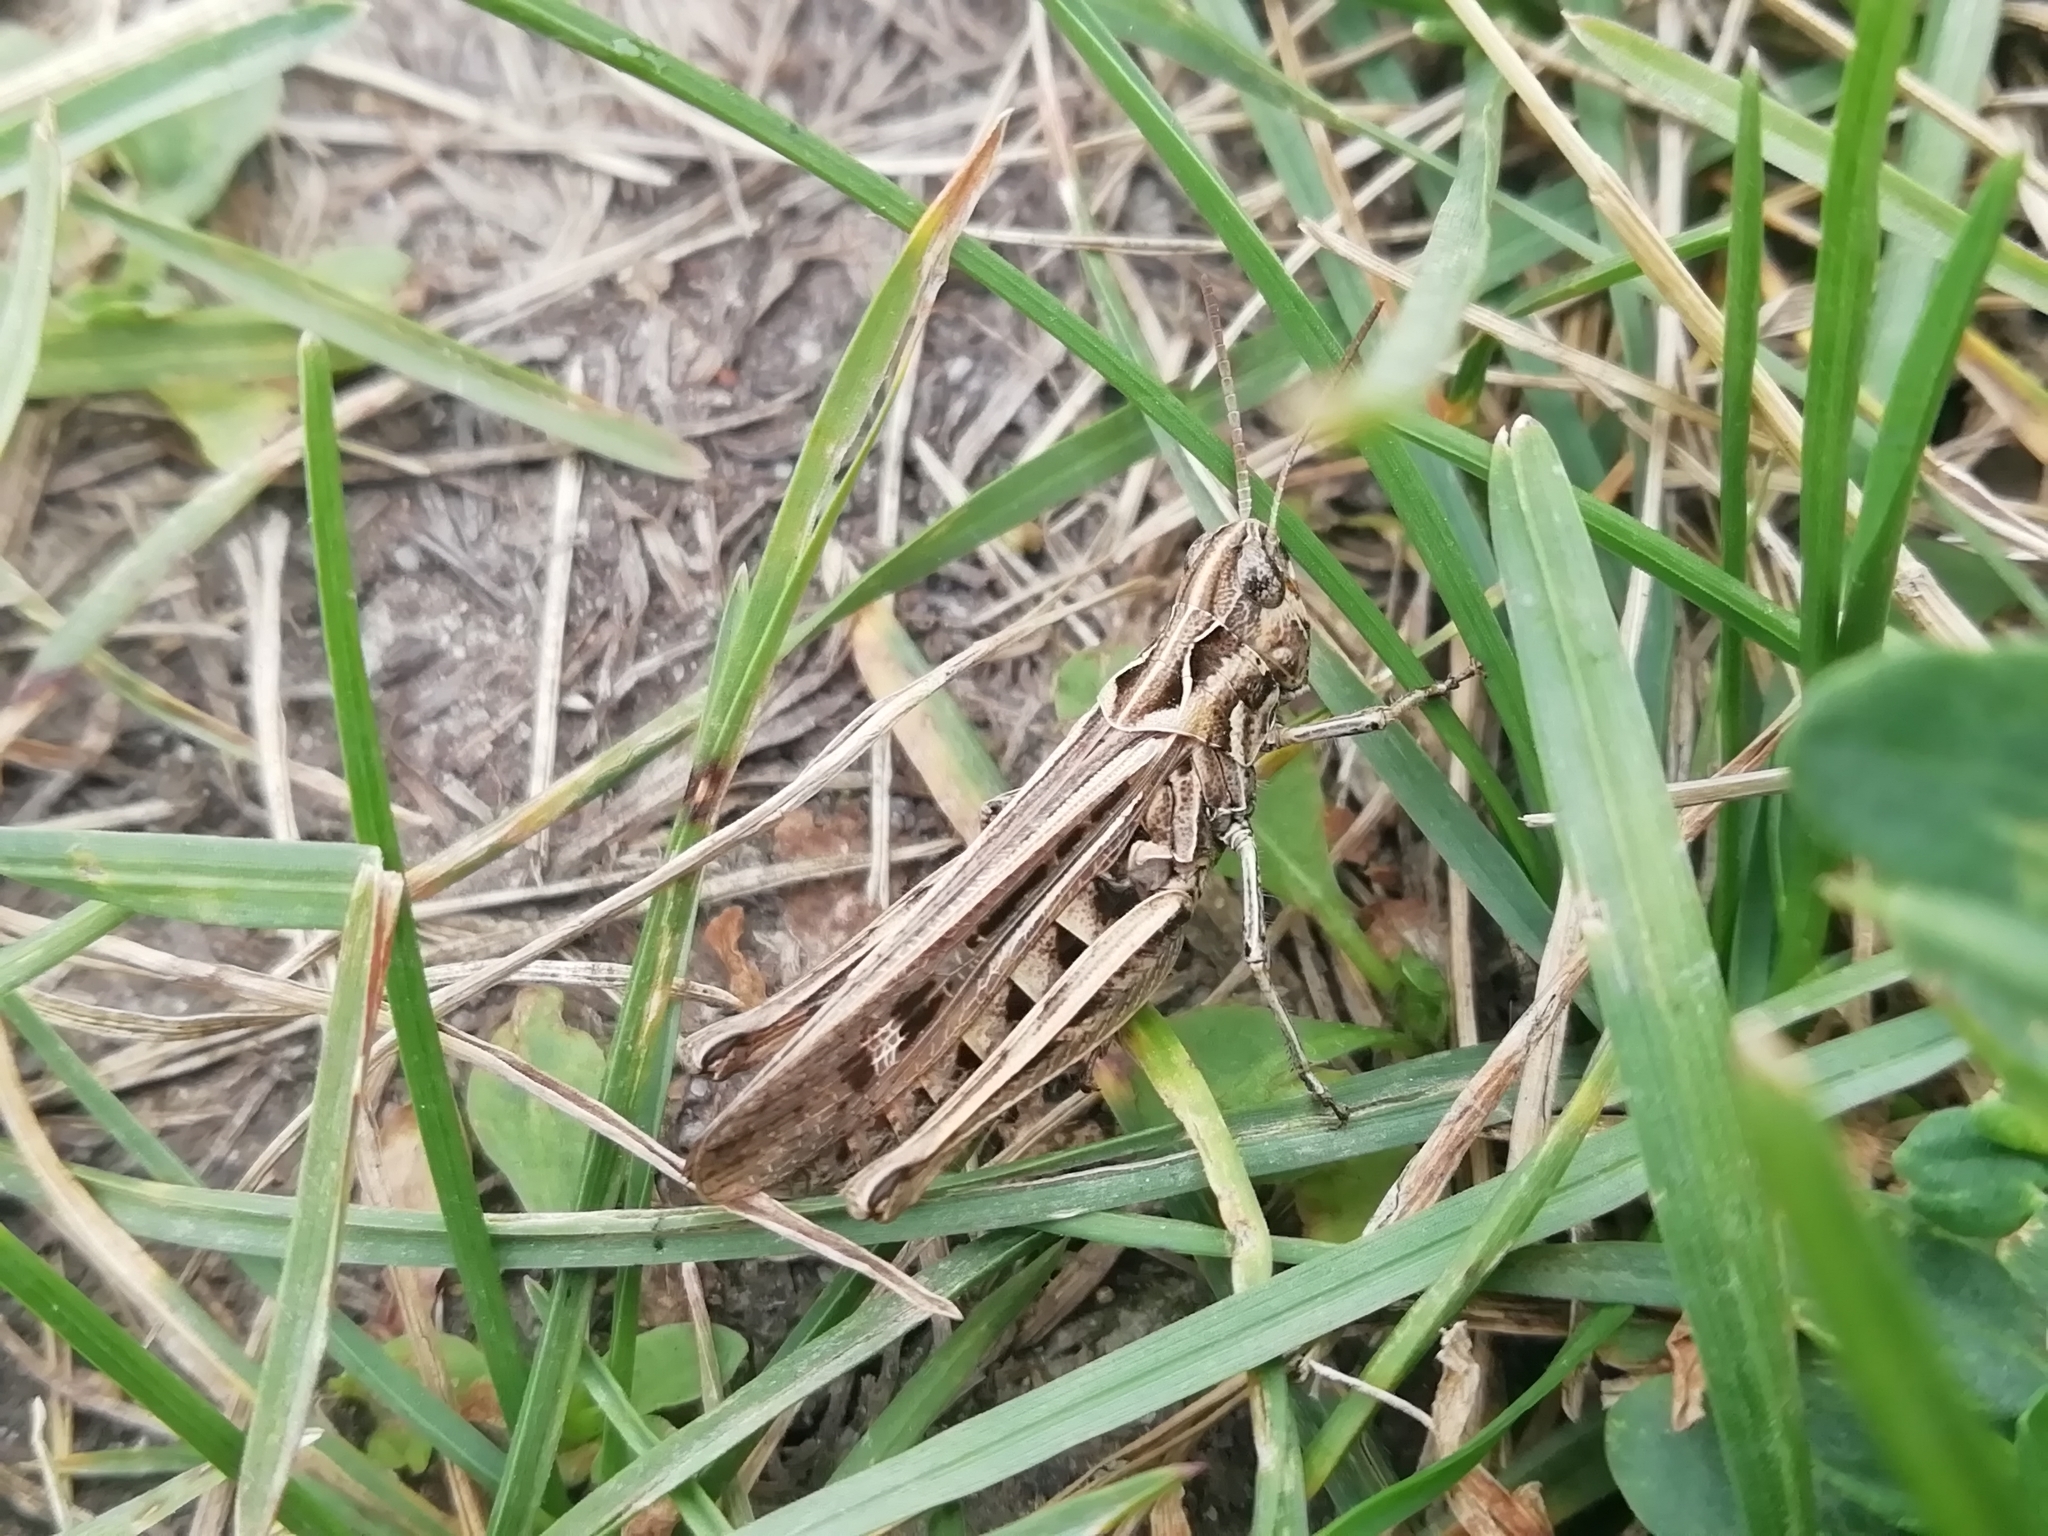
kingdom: Animalia
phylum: Arthropoda
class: Insecta
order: Orthoptera
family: Acrididae
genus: Chorthippus
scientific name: Chorthippus biguttulus
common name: Bow-winged grasshopper
